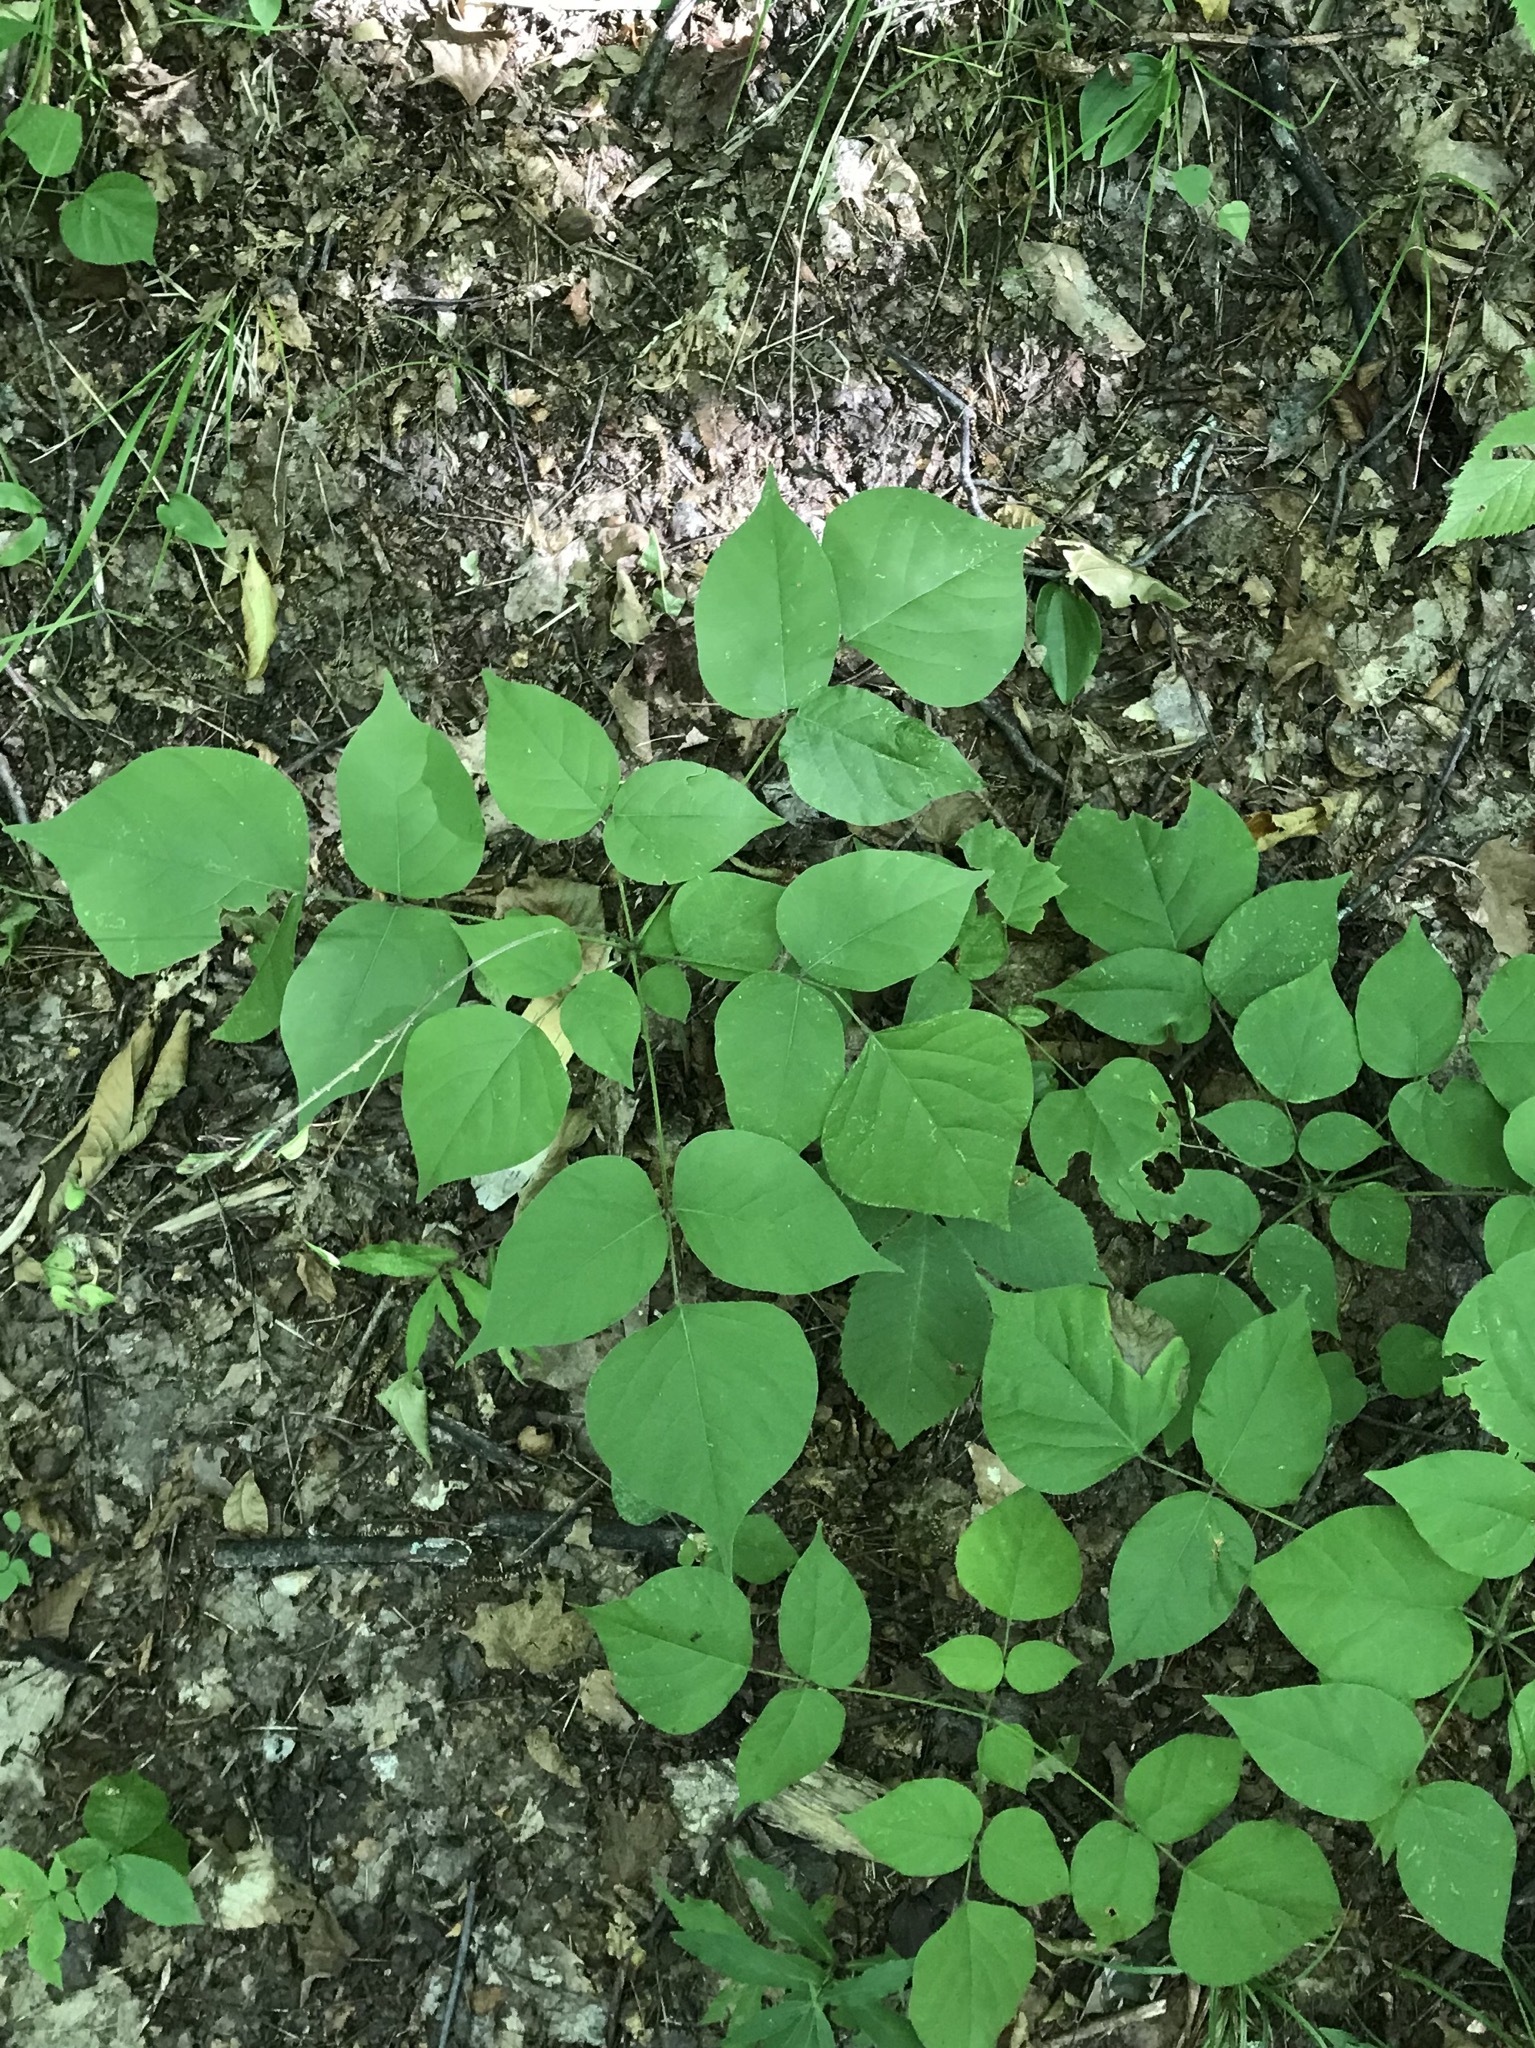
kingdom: Plantae
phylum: Tracheophyta
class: Magnoliopsida
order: Fabales
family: Fabaceae
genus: Hylodesmum
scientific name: Hylodesmum glutinosum
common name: Clustered-leaved tick-trefoil
